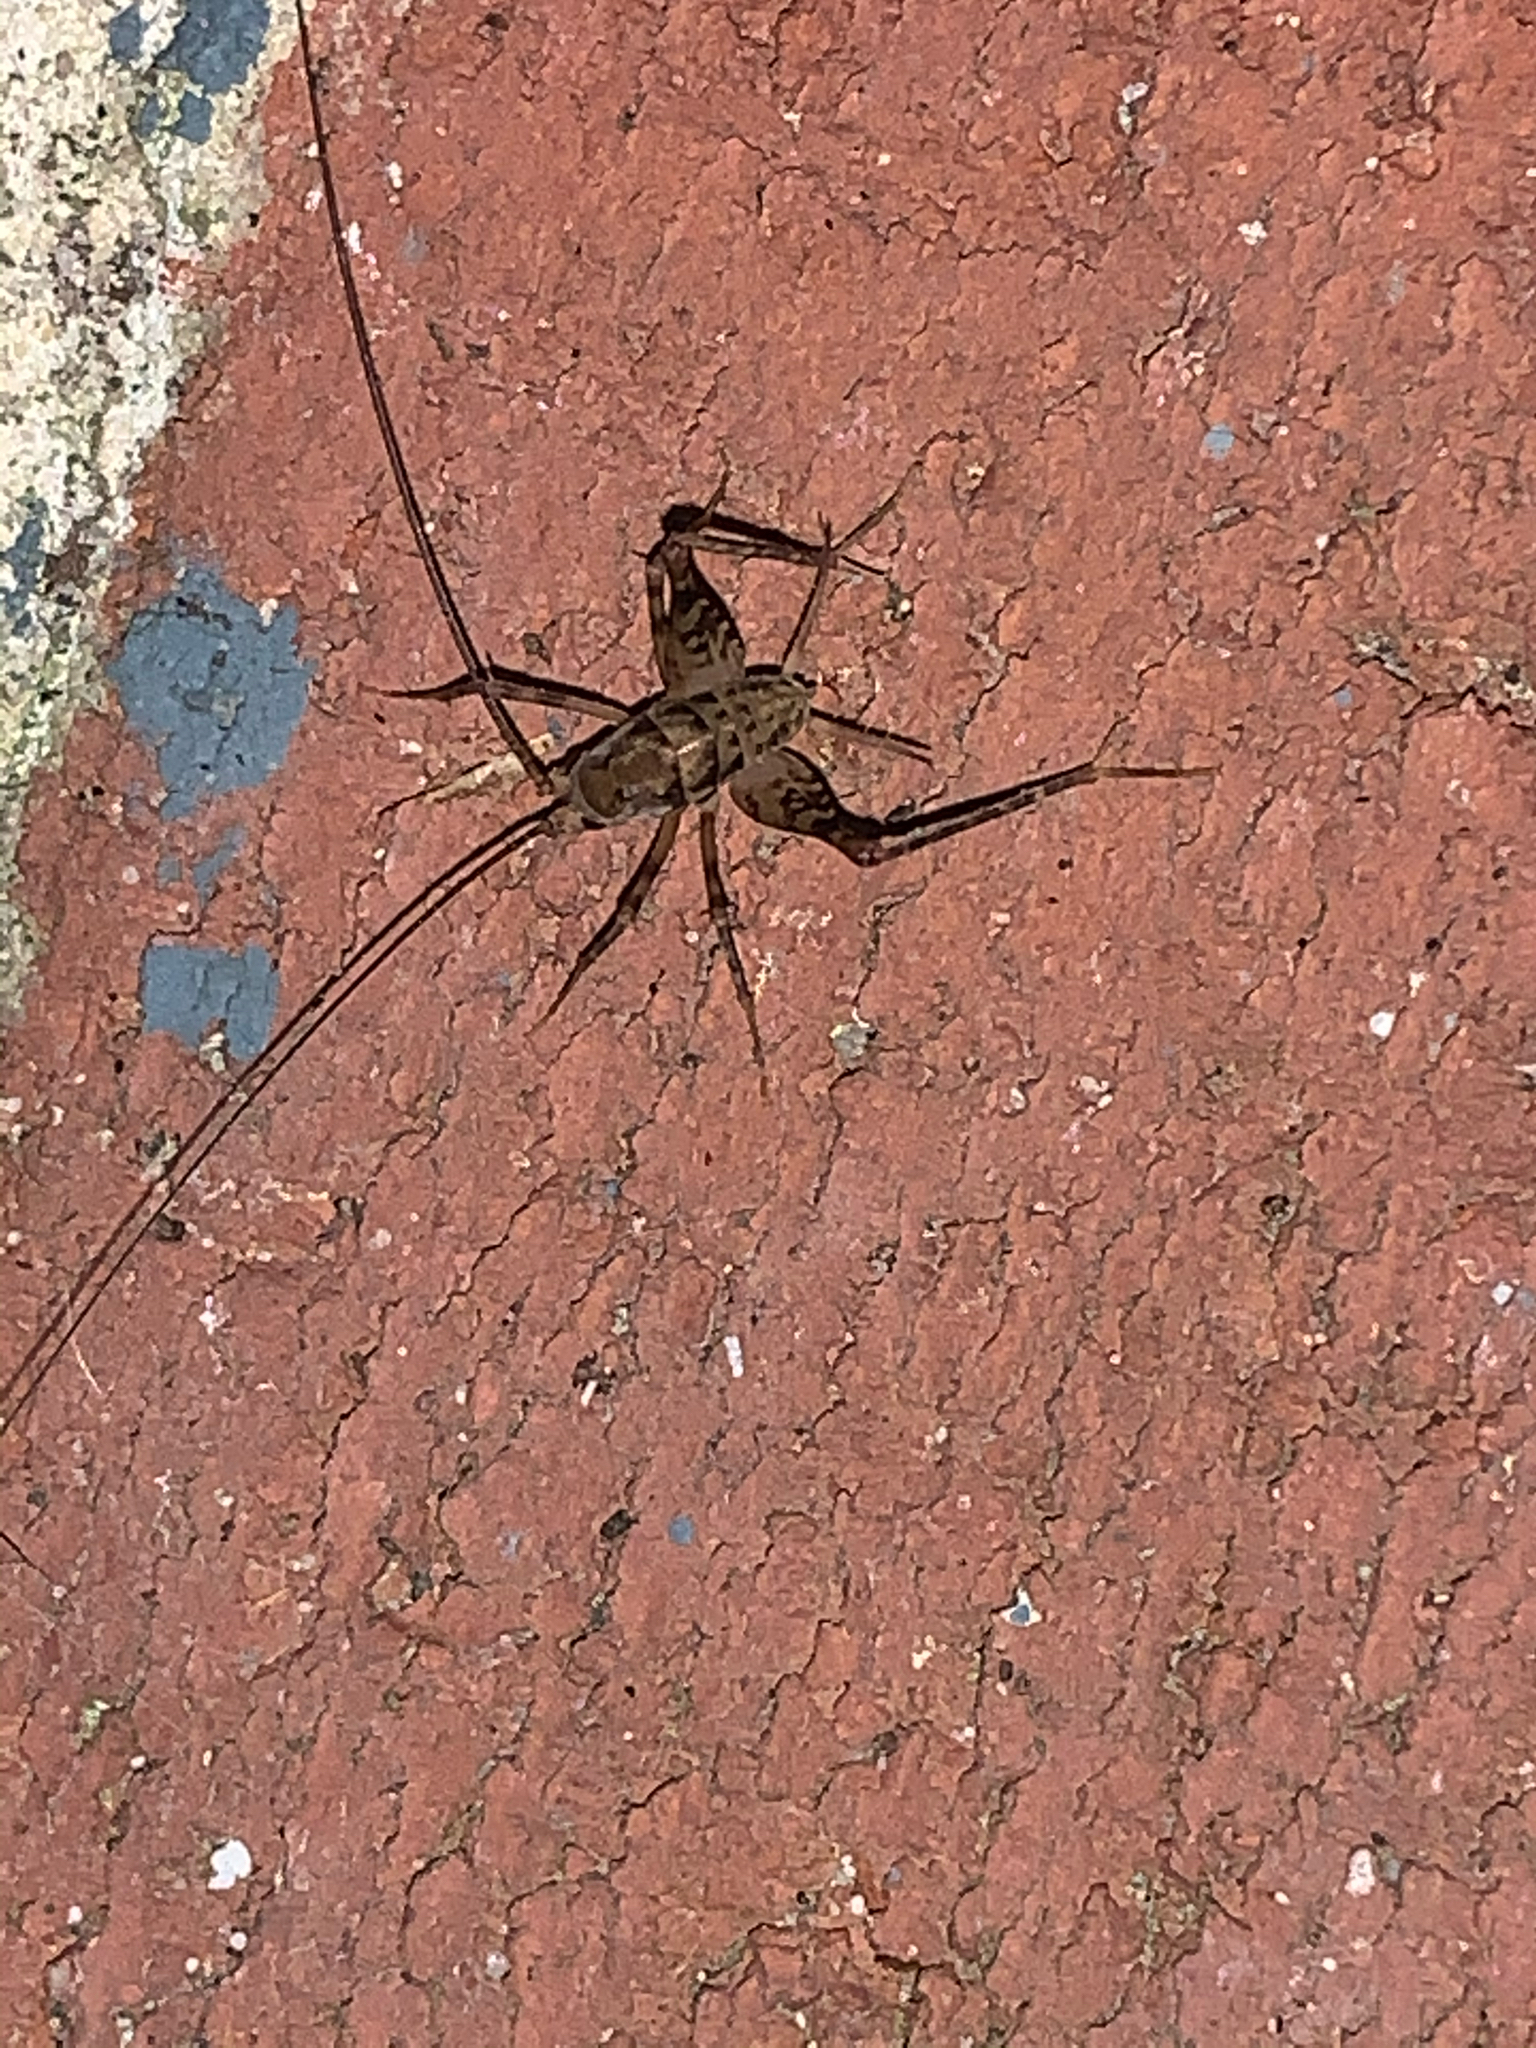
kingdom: Animalia
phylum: Arthropoda
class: Insecta
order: Orthoptera
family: Rhaphidophoridae
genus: Tachycines
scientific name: Tachycines asynamorus
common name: Greenhouse camel cricket
